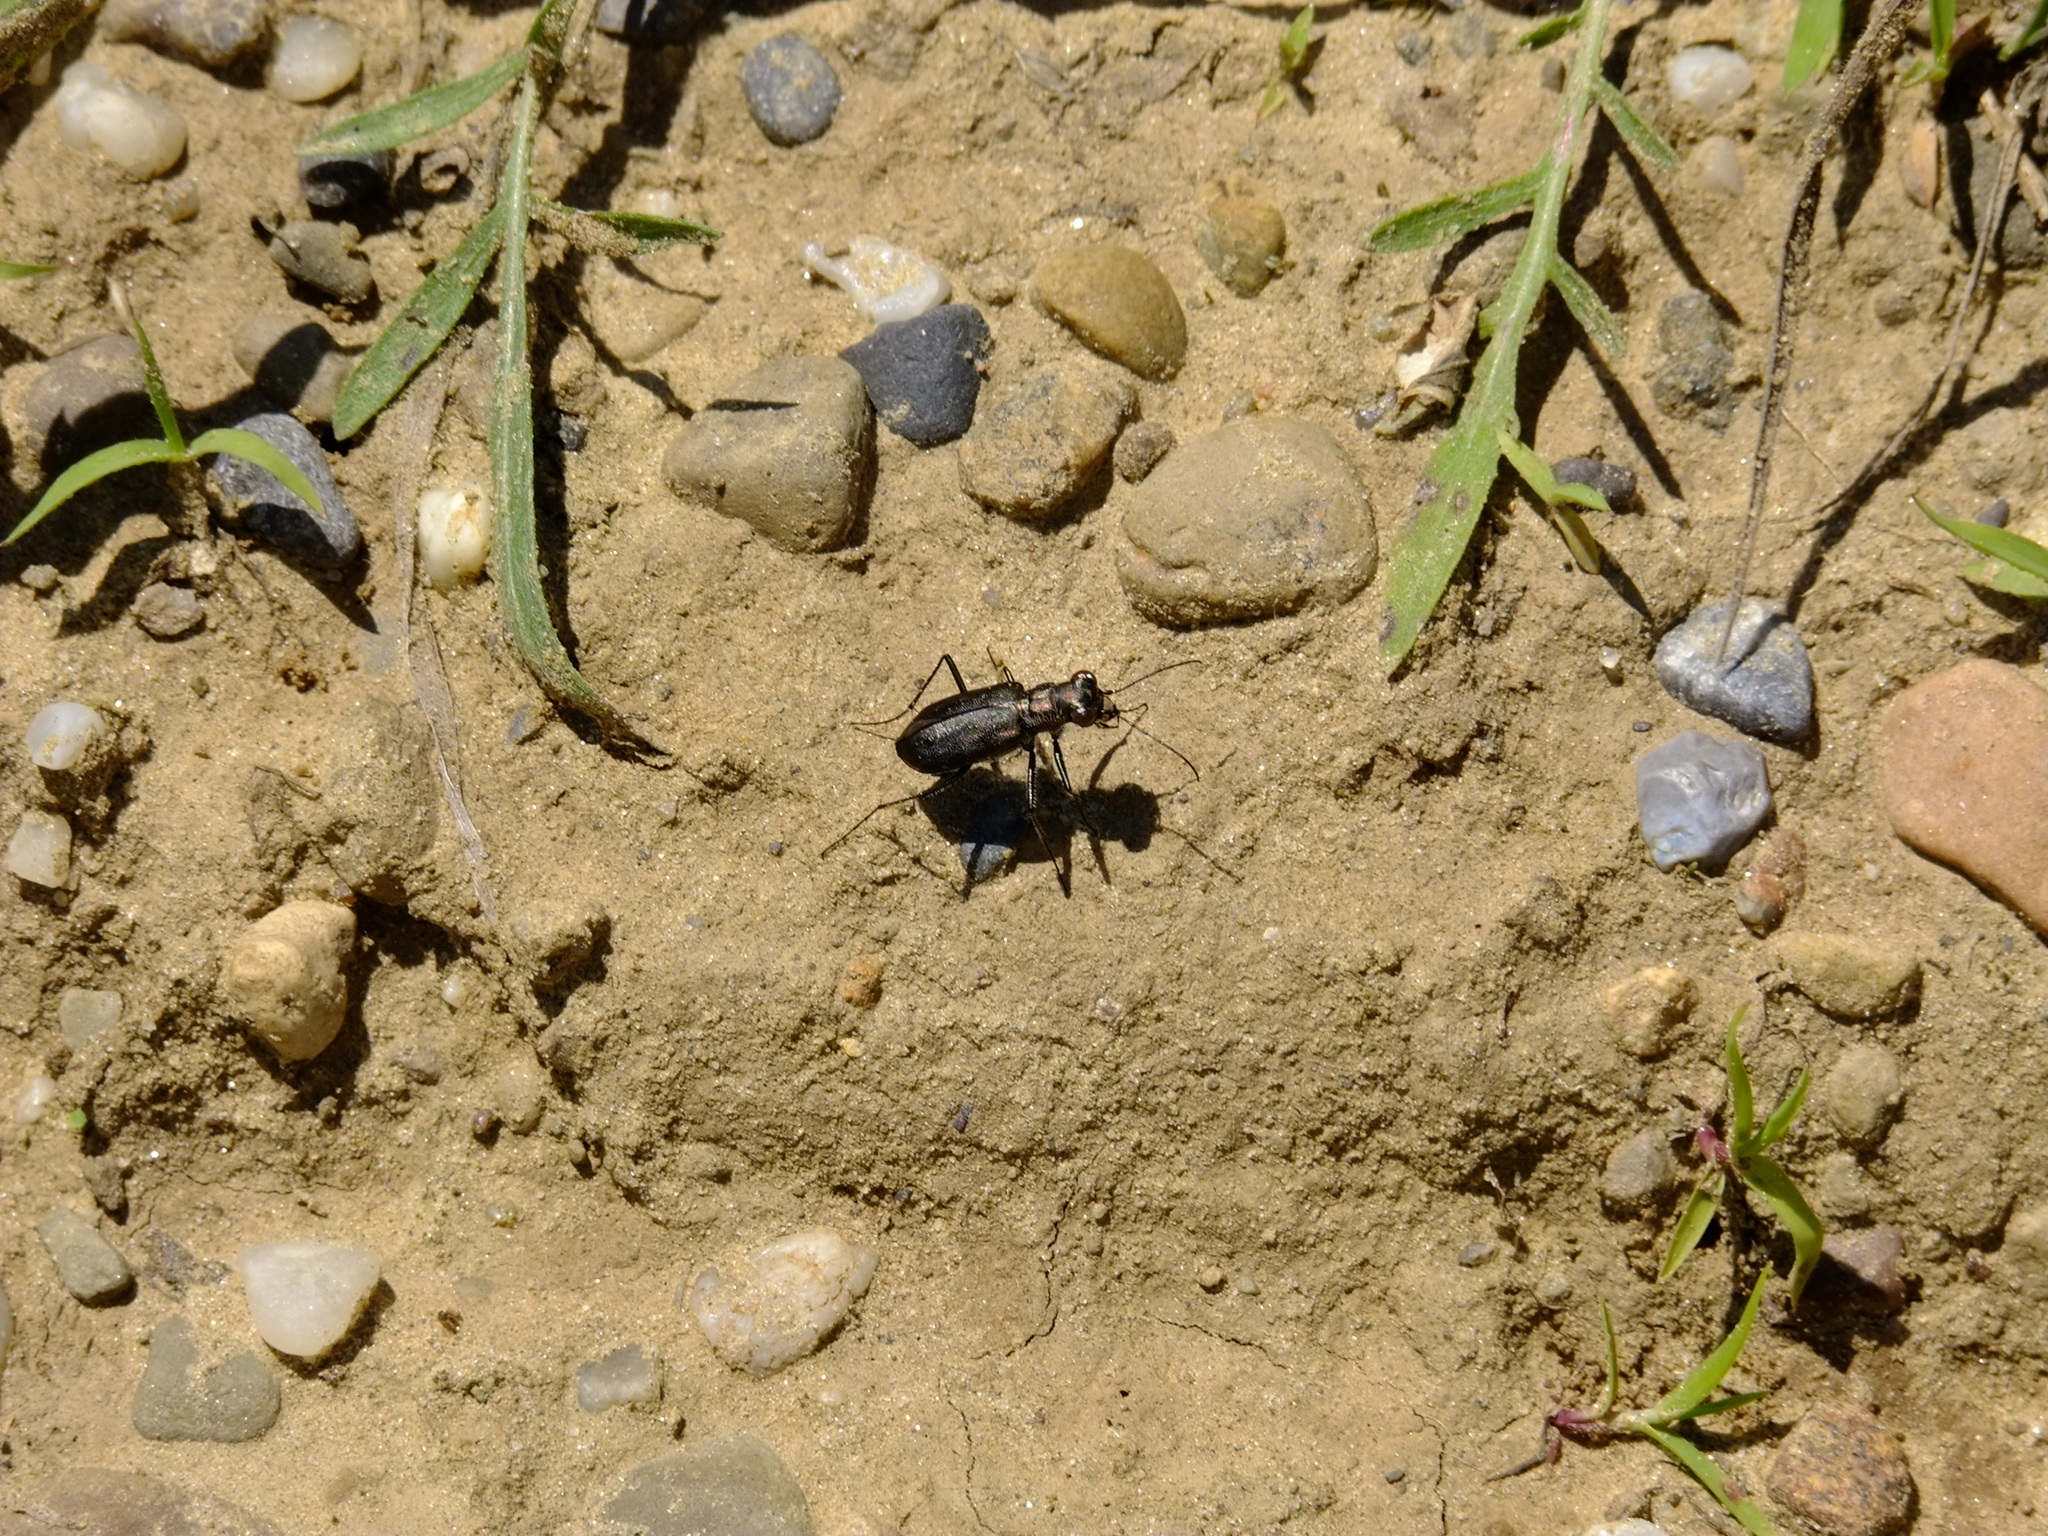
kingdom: Animalia
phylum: Arthropoda
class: Insecta
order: Coleoptera
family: Carabidae
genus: Cicindela
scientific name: Cicindela punctulata
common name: Punctured tiger beetle
